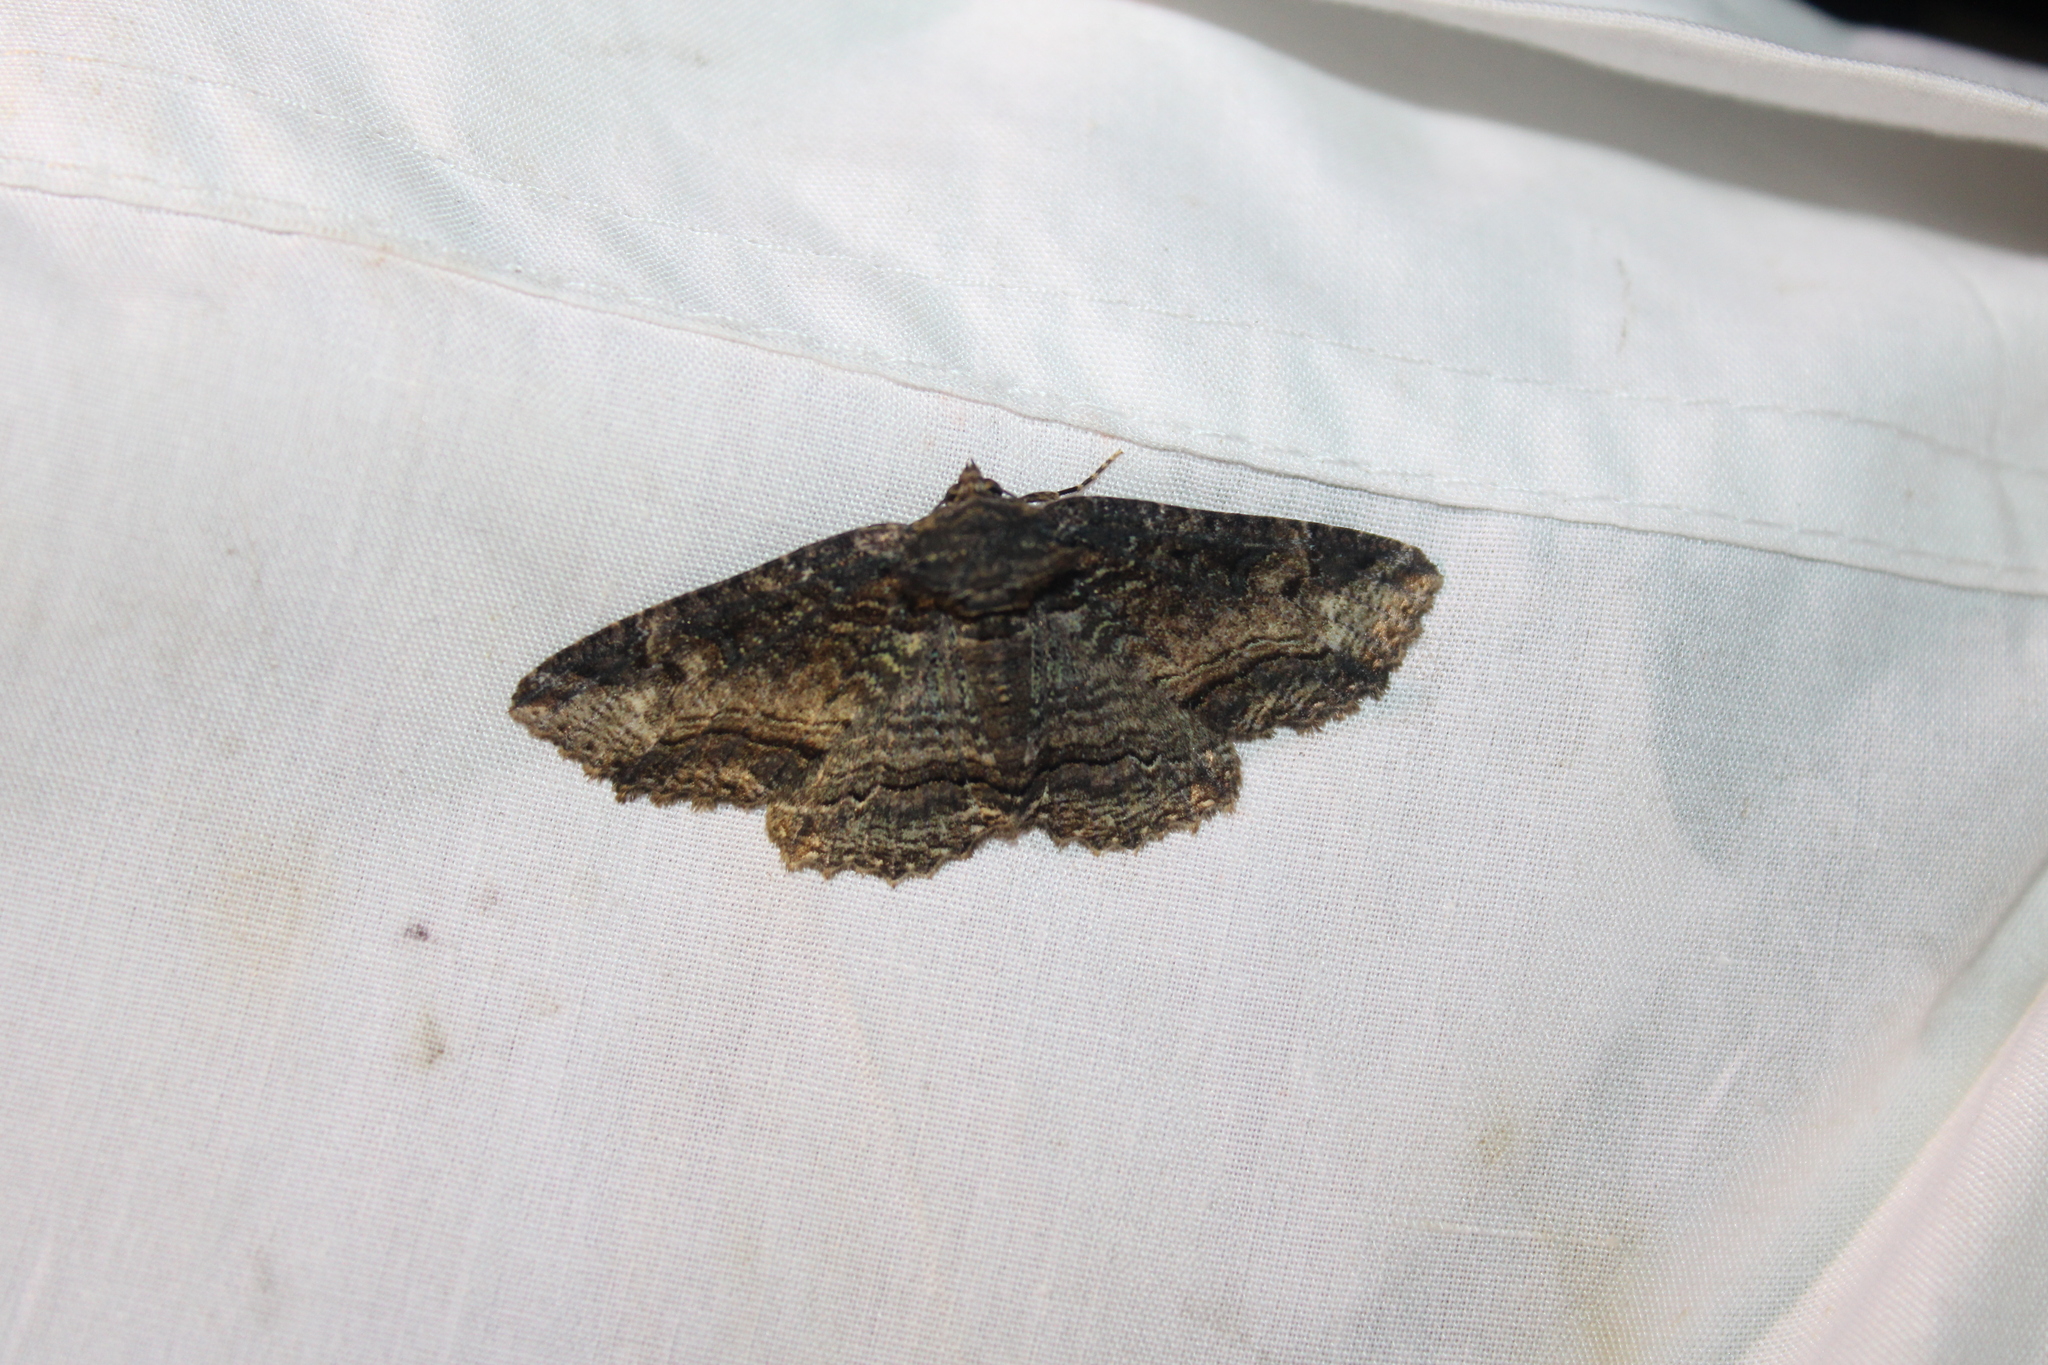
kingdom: Animalia
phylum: Arthropoda
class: Insecta
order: Lepidoptera
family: Erebidae
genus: Zale
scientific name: Zale minerea
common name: Colorful zale moth
